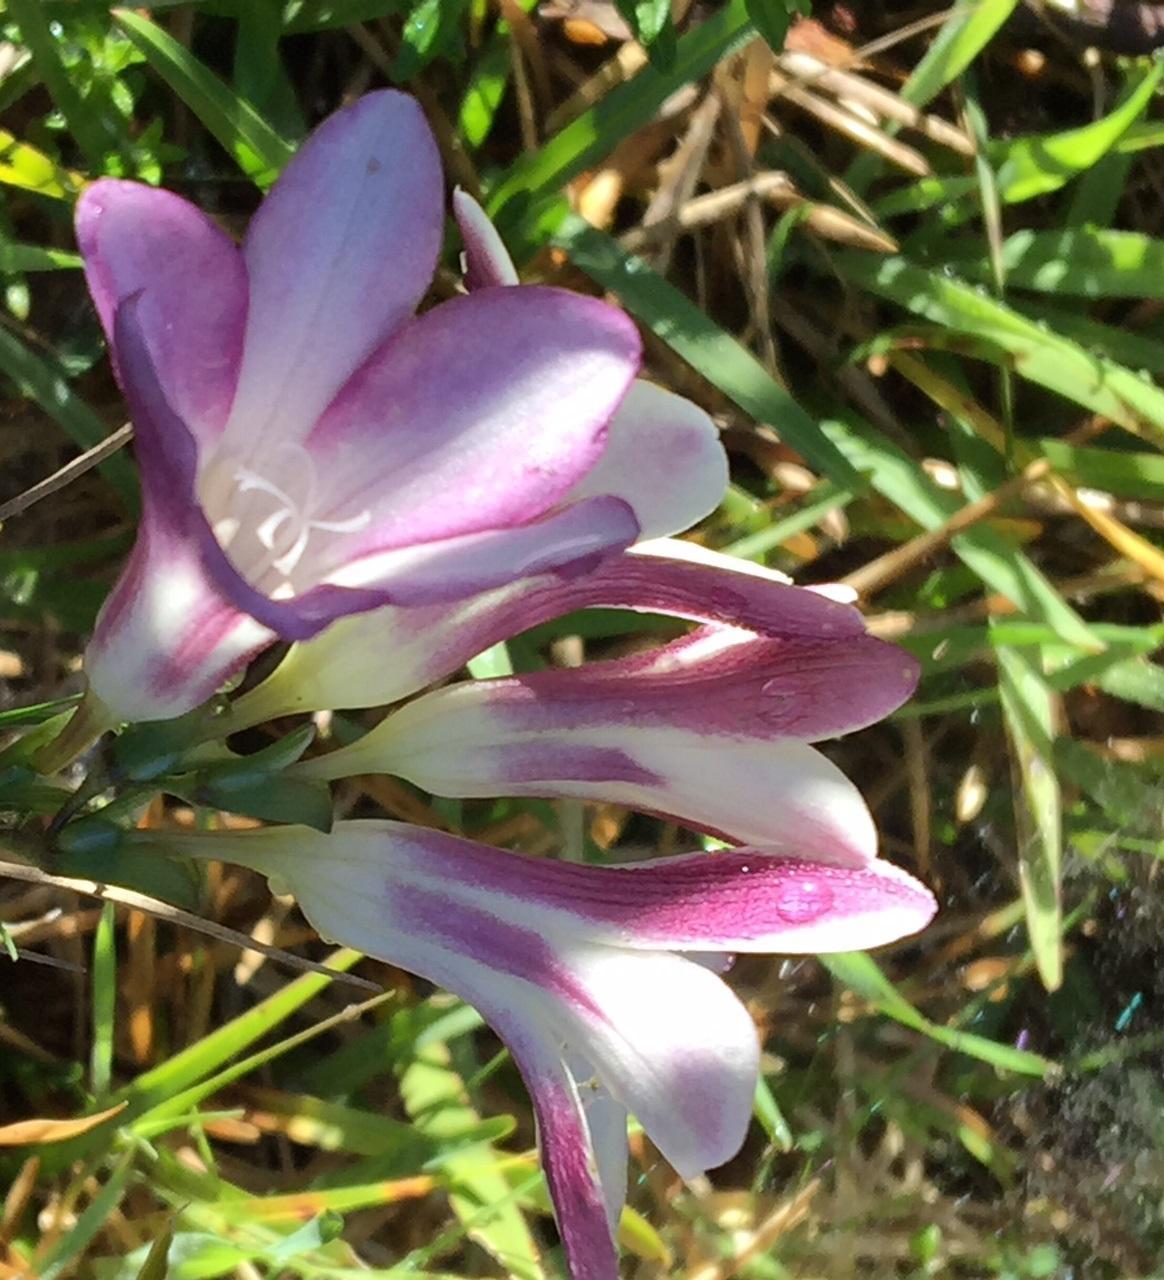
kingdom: Plantae
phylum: Tracheophyta
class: Liliopsida
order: Asparagales
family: Iridaceae
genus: Freesia
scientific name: Freesia leichtlinii
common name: Freesia
